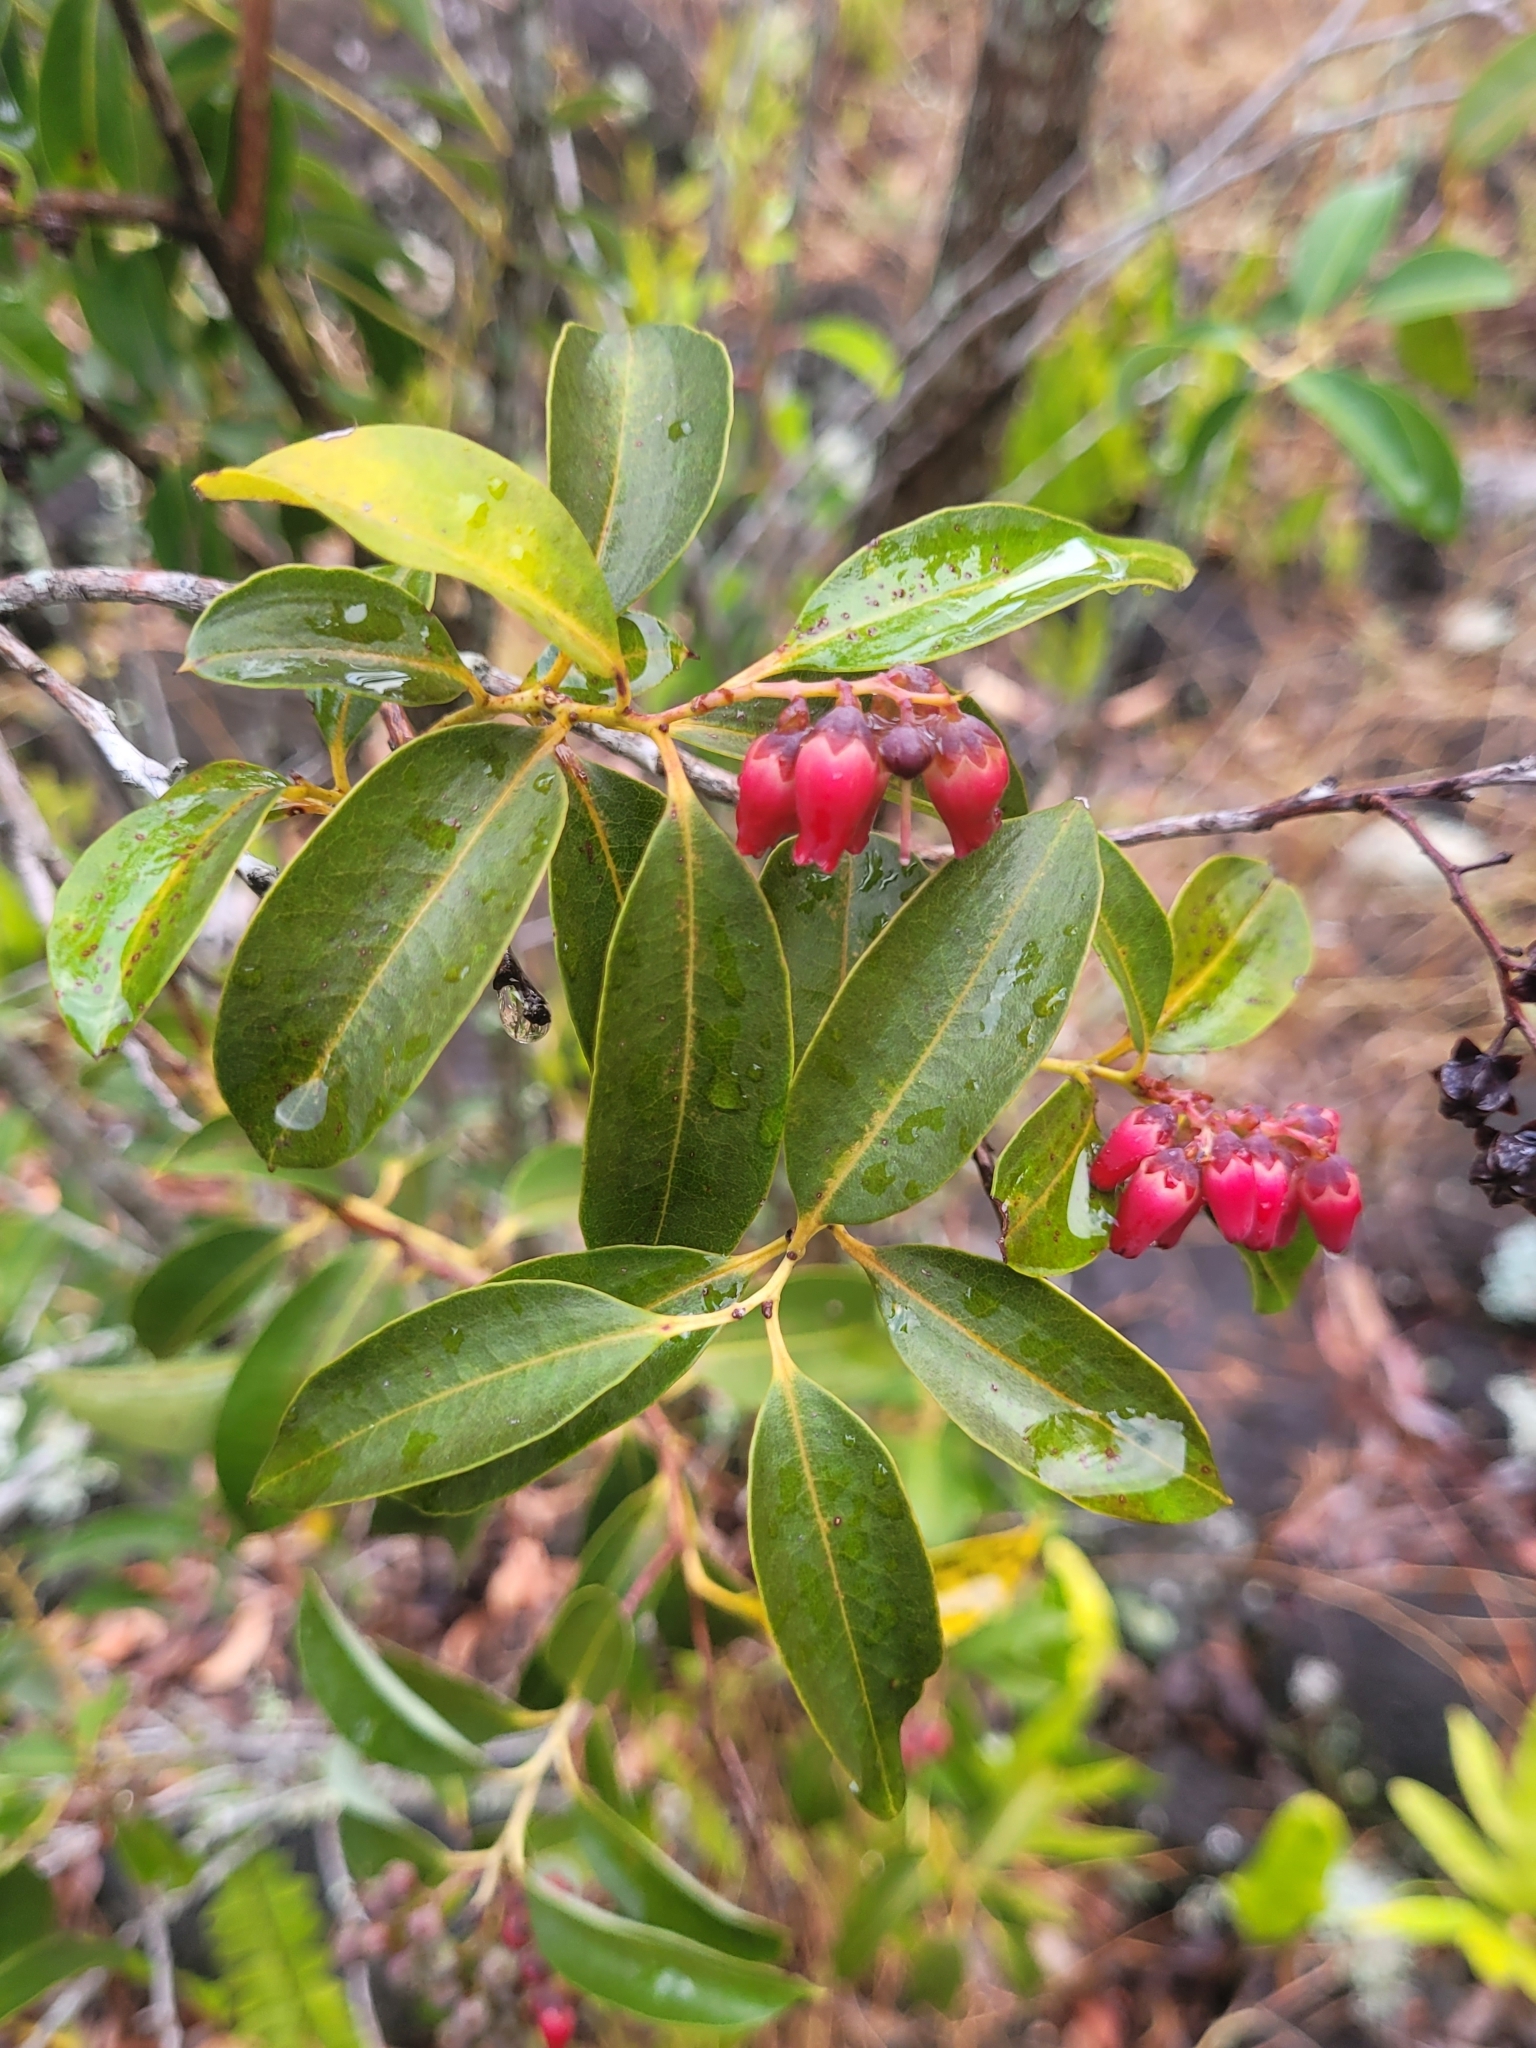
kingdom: Plantae
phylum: Tracheophyta
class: Magnoliopsida
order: Ericales
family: Ericaceae
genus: Agarista
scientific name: Agarista salicifolia
